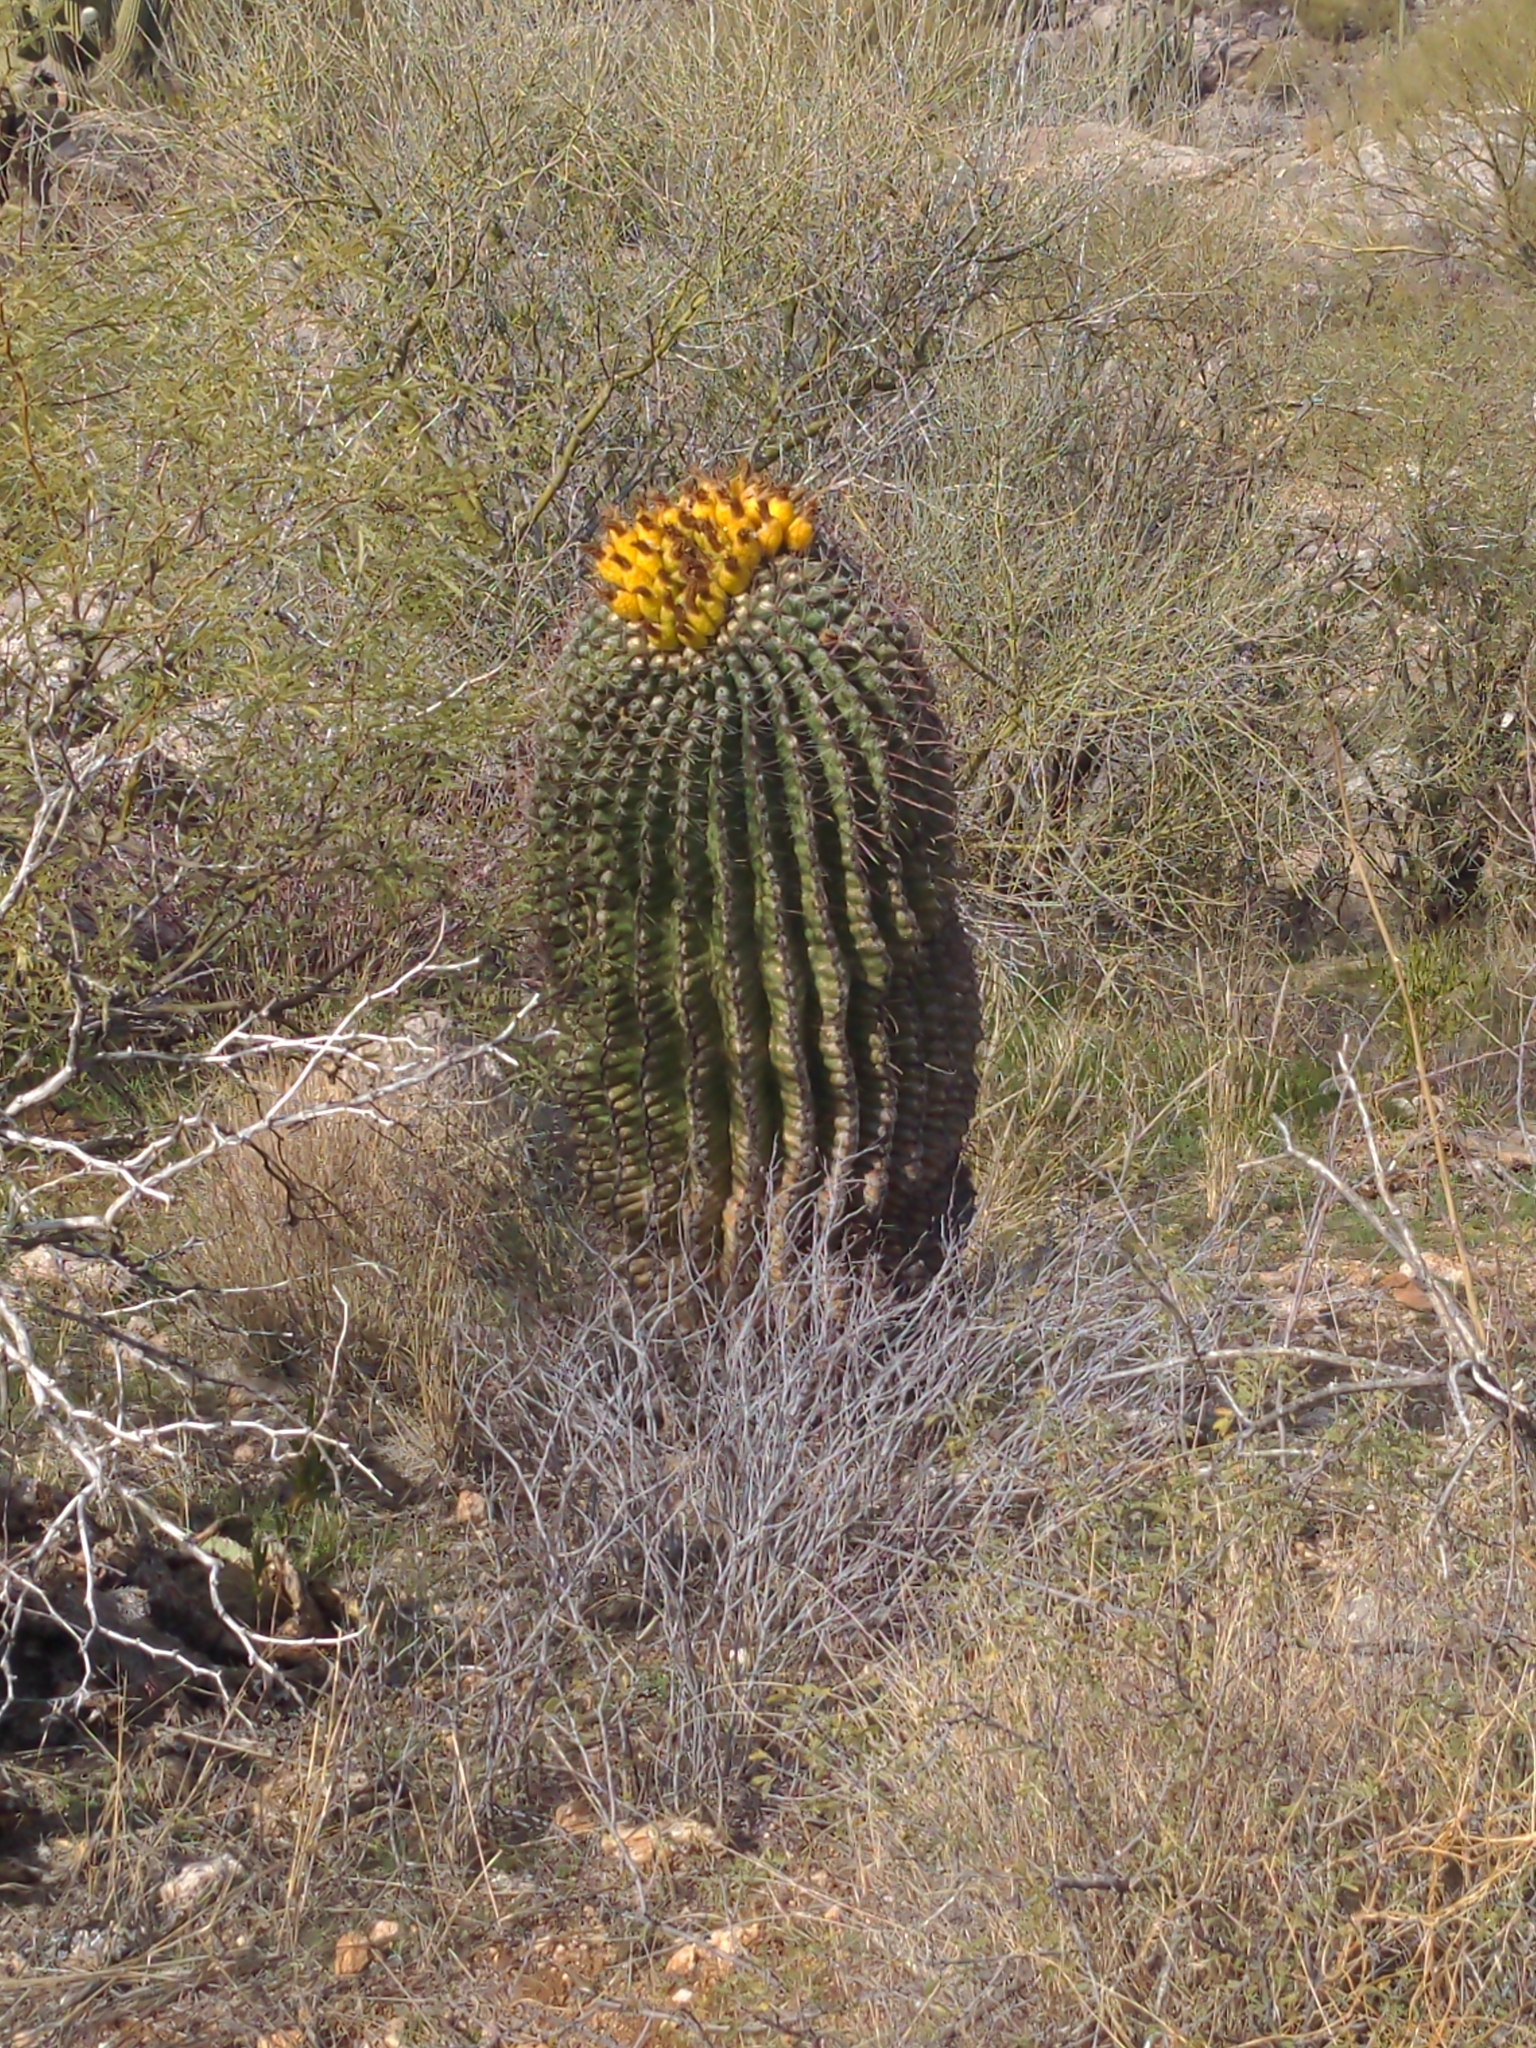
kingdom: Plantae
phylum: Tracheophyta
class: Magnoliopsida
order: Caryophyllales
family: Cactaceae
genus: Ferocactus
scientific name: Ferocactus wislizeni
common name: Candy barrel cactus
